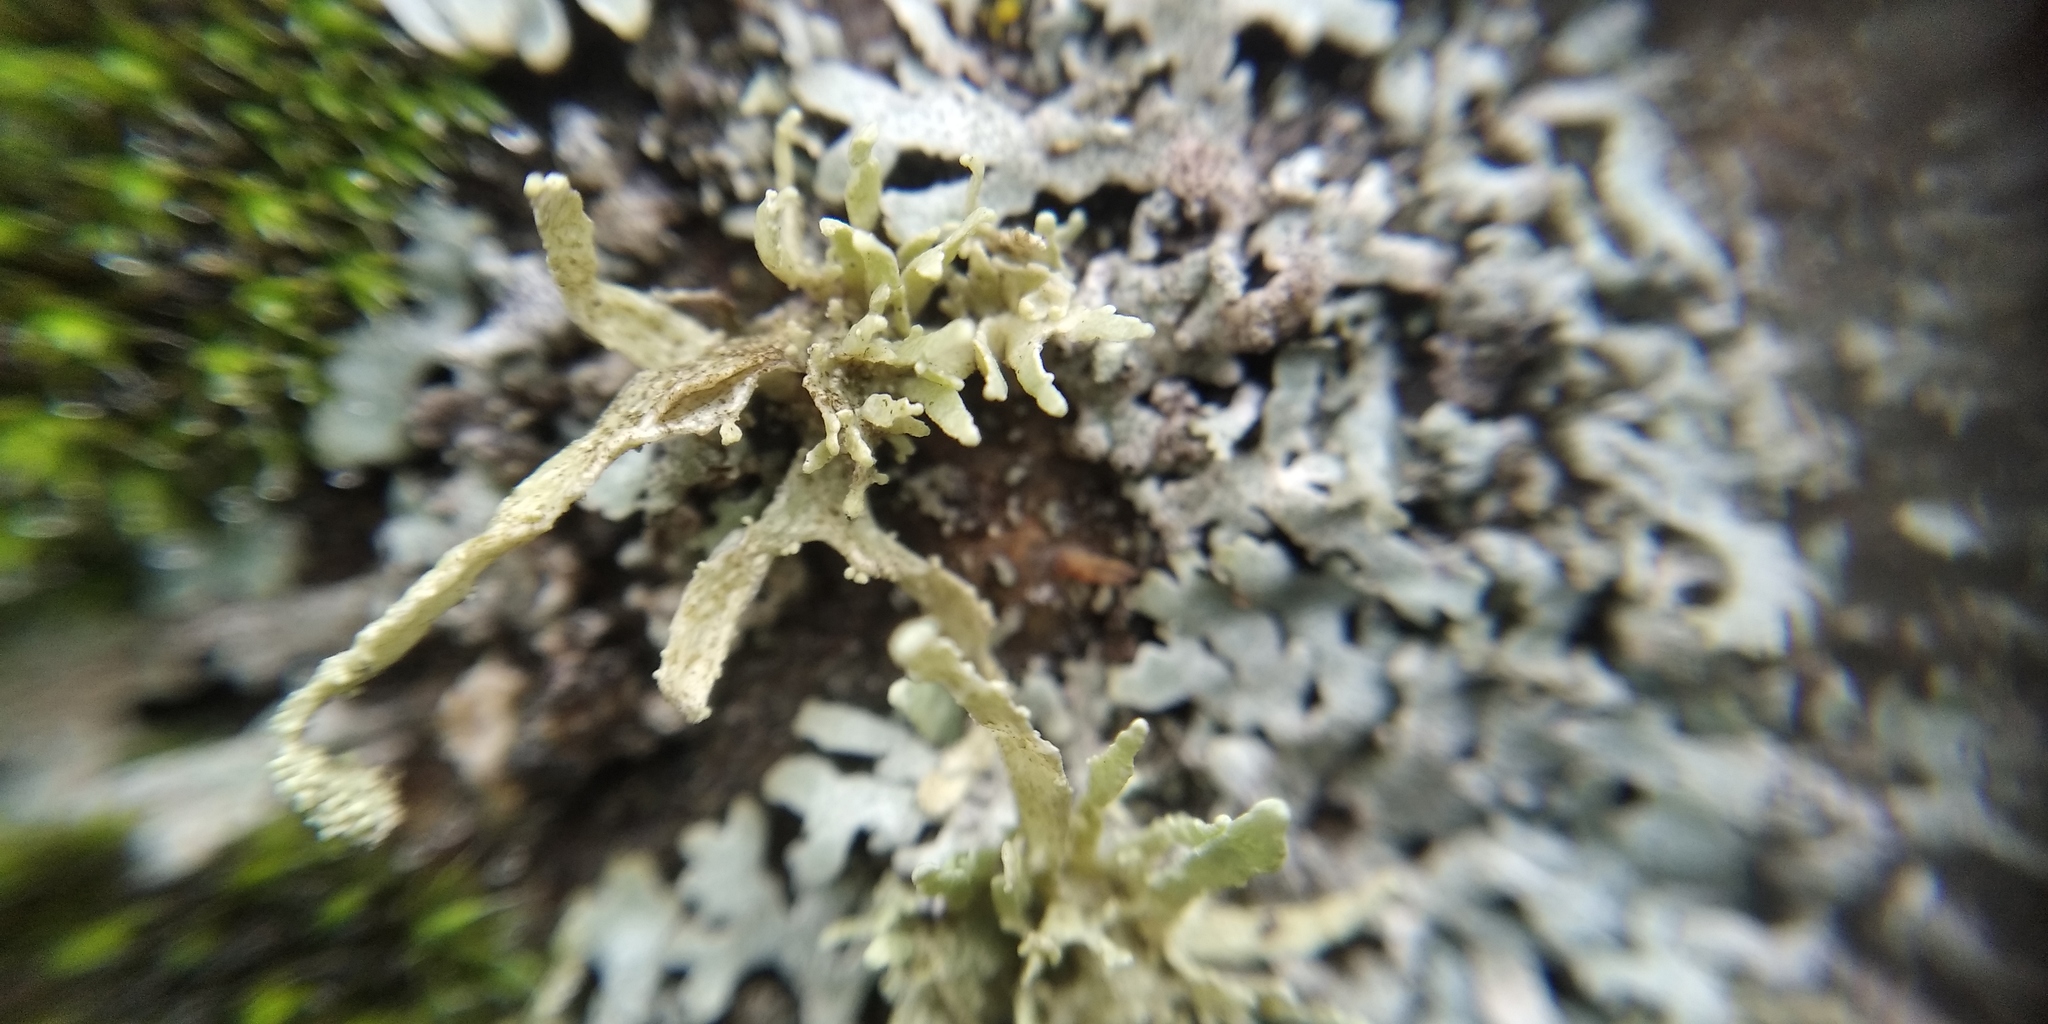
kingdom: Fungi
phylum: Ascomycota
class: Lecanoromycetes
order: Lecanorales
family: Ramalinaceae
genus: Ramalina
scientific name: Ramalina polymorpha
